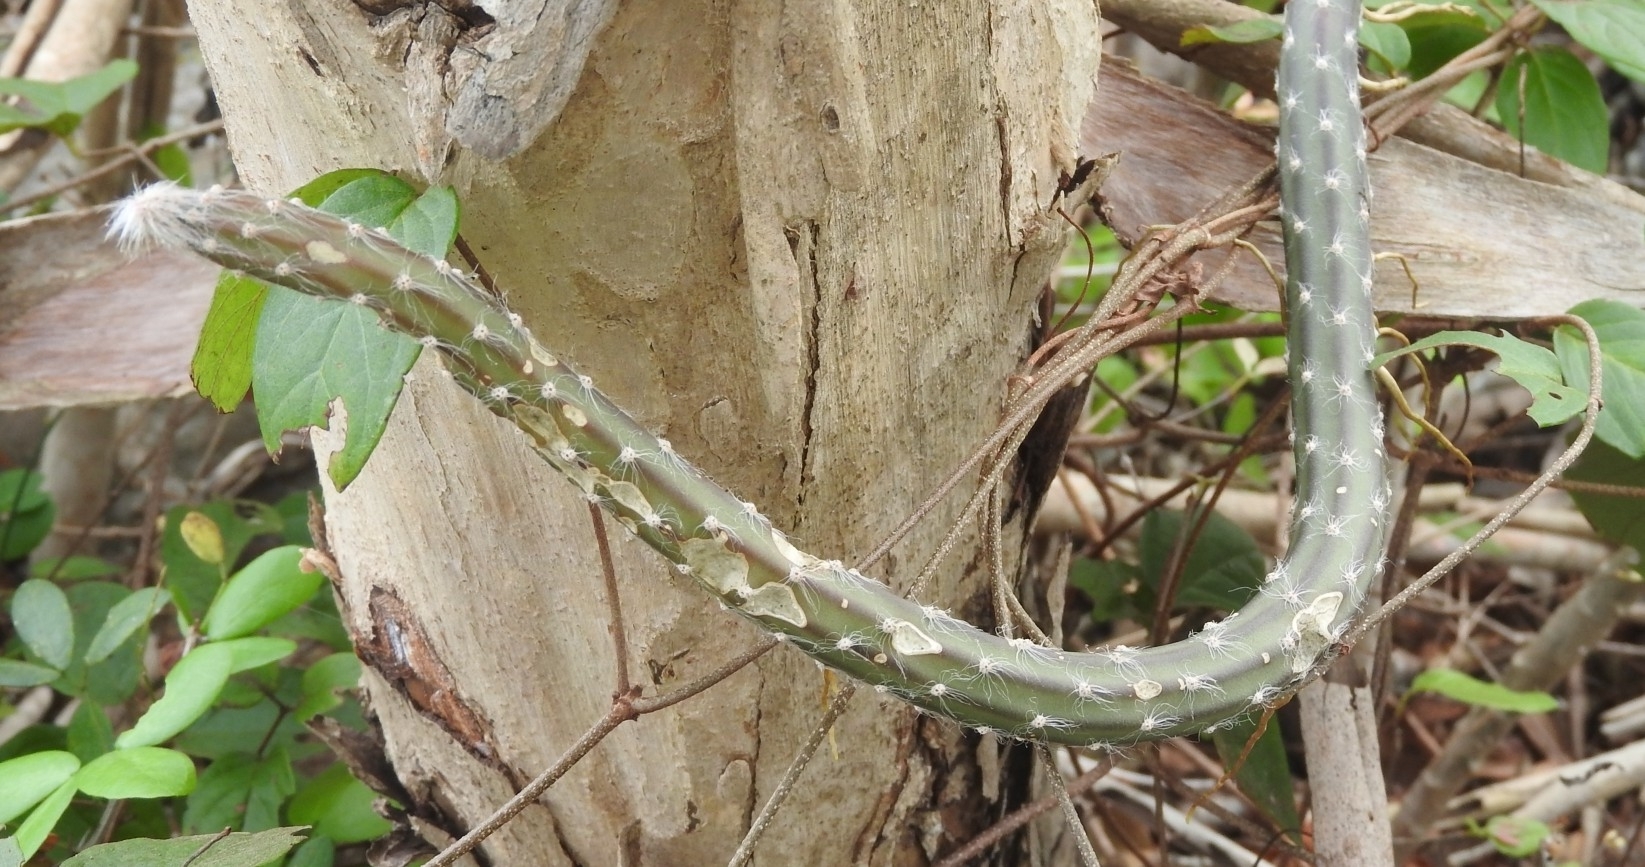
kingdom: Plantae
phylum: Tracheophyta
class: Magnoliopsida
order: Caryophyllales
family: Cactaceae
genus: Selenicereus
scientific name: Selenicereus grandiflorus
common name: Queen of the night
